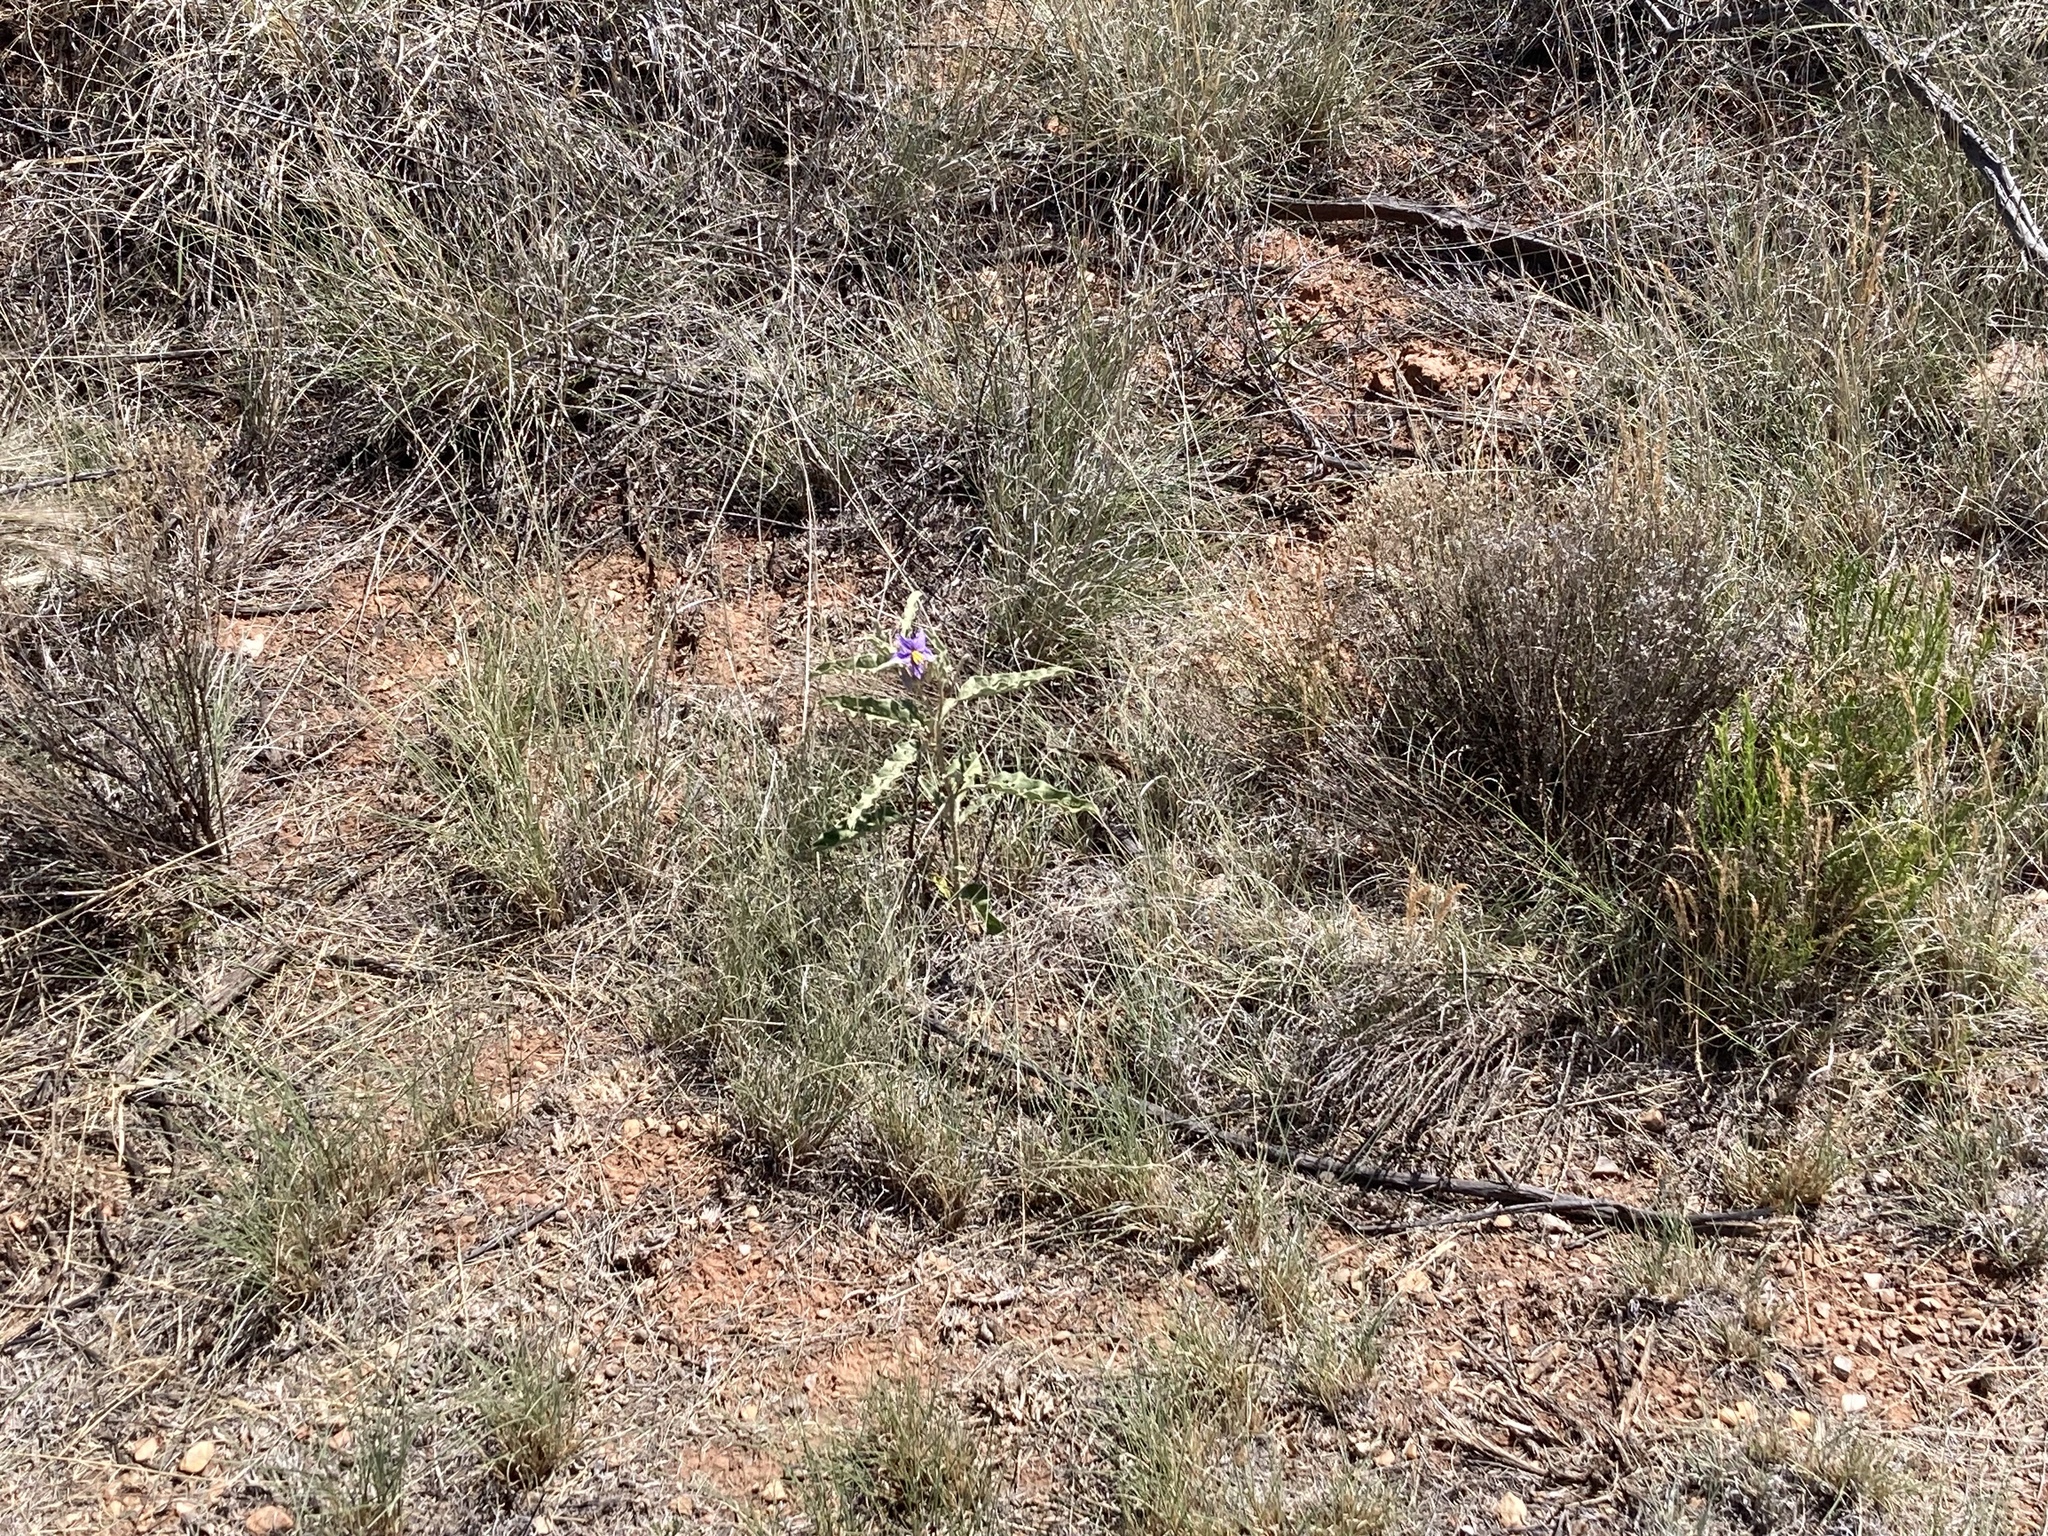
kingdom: Plantae
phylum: Tracheophyta
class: Magnoliopsida
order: Solanales
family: Solanaceae
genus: Solanum
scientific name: Solanum elaeagnifolium
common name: Silverleaf nightshade
